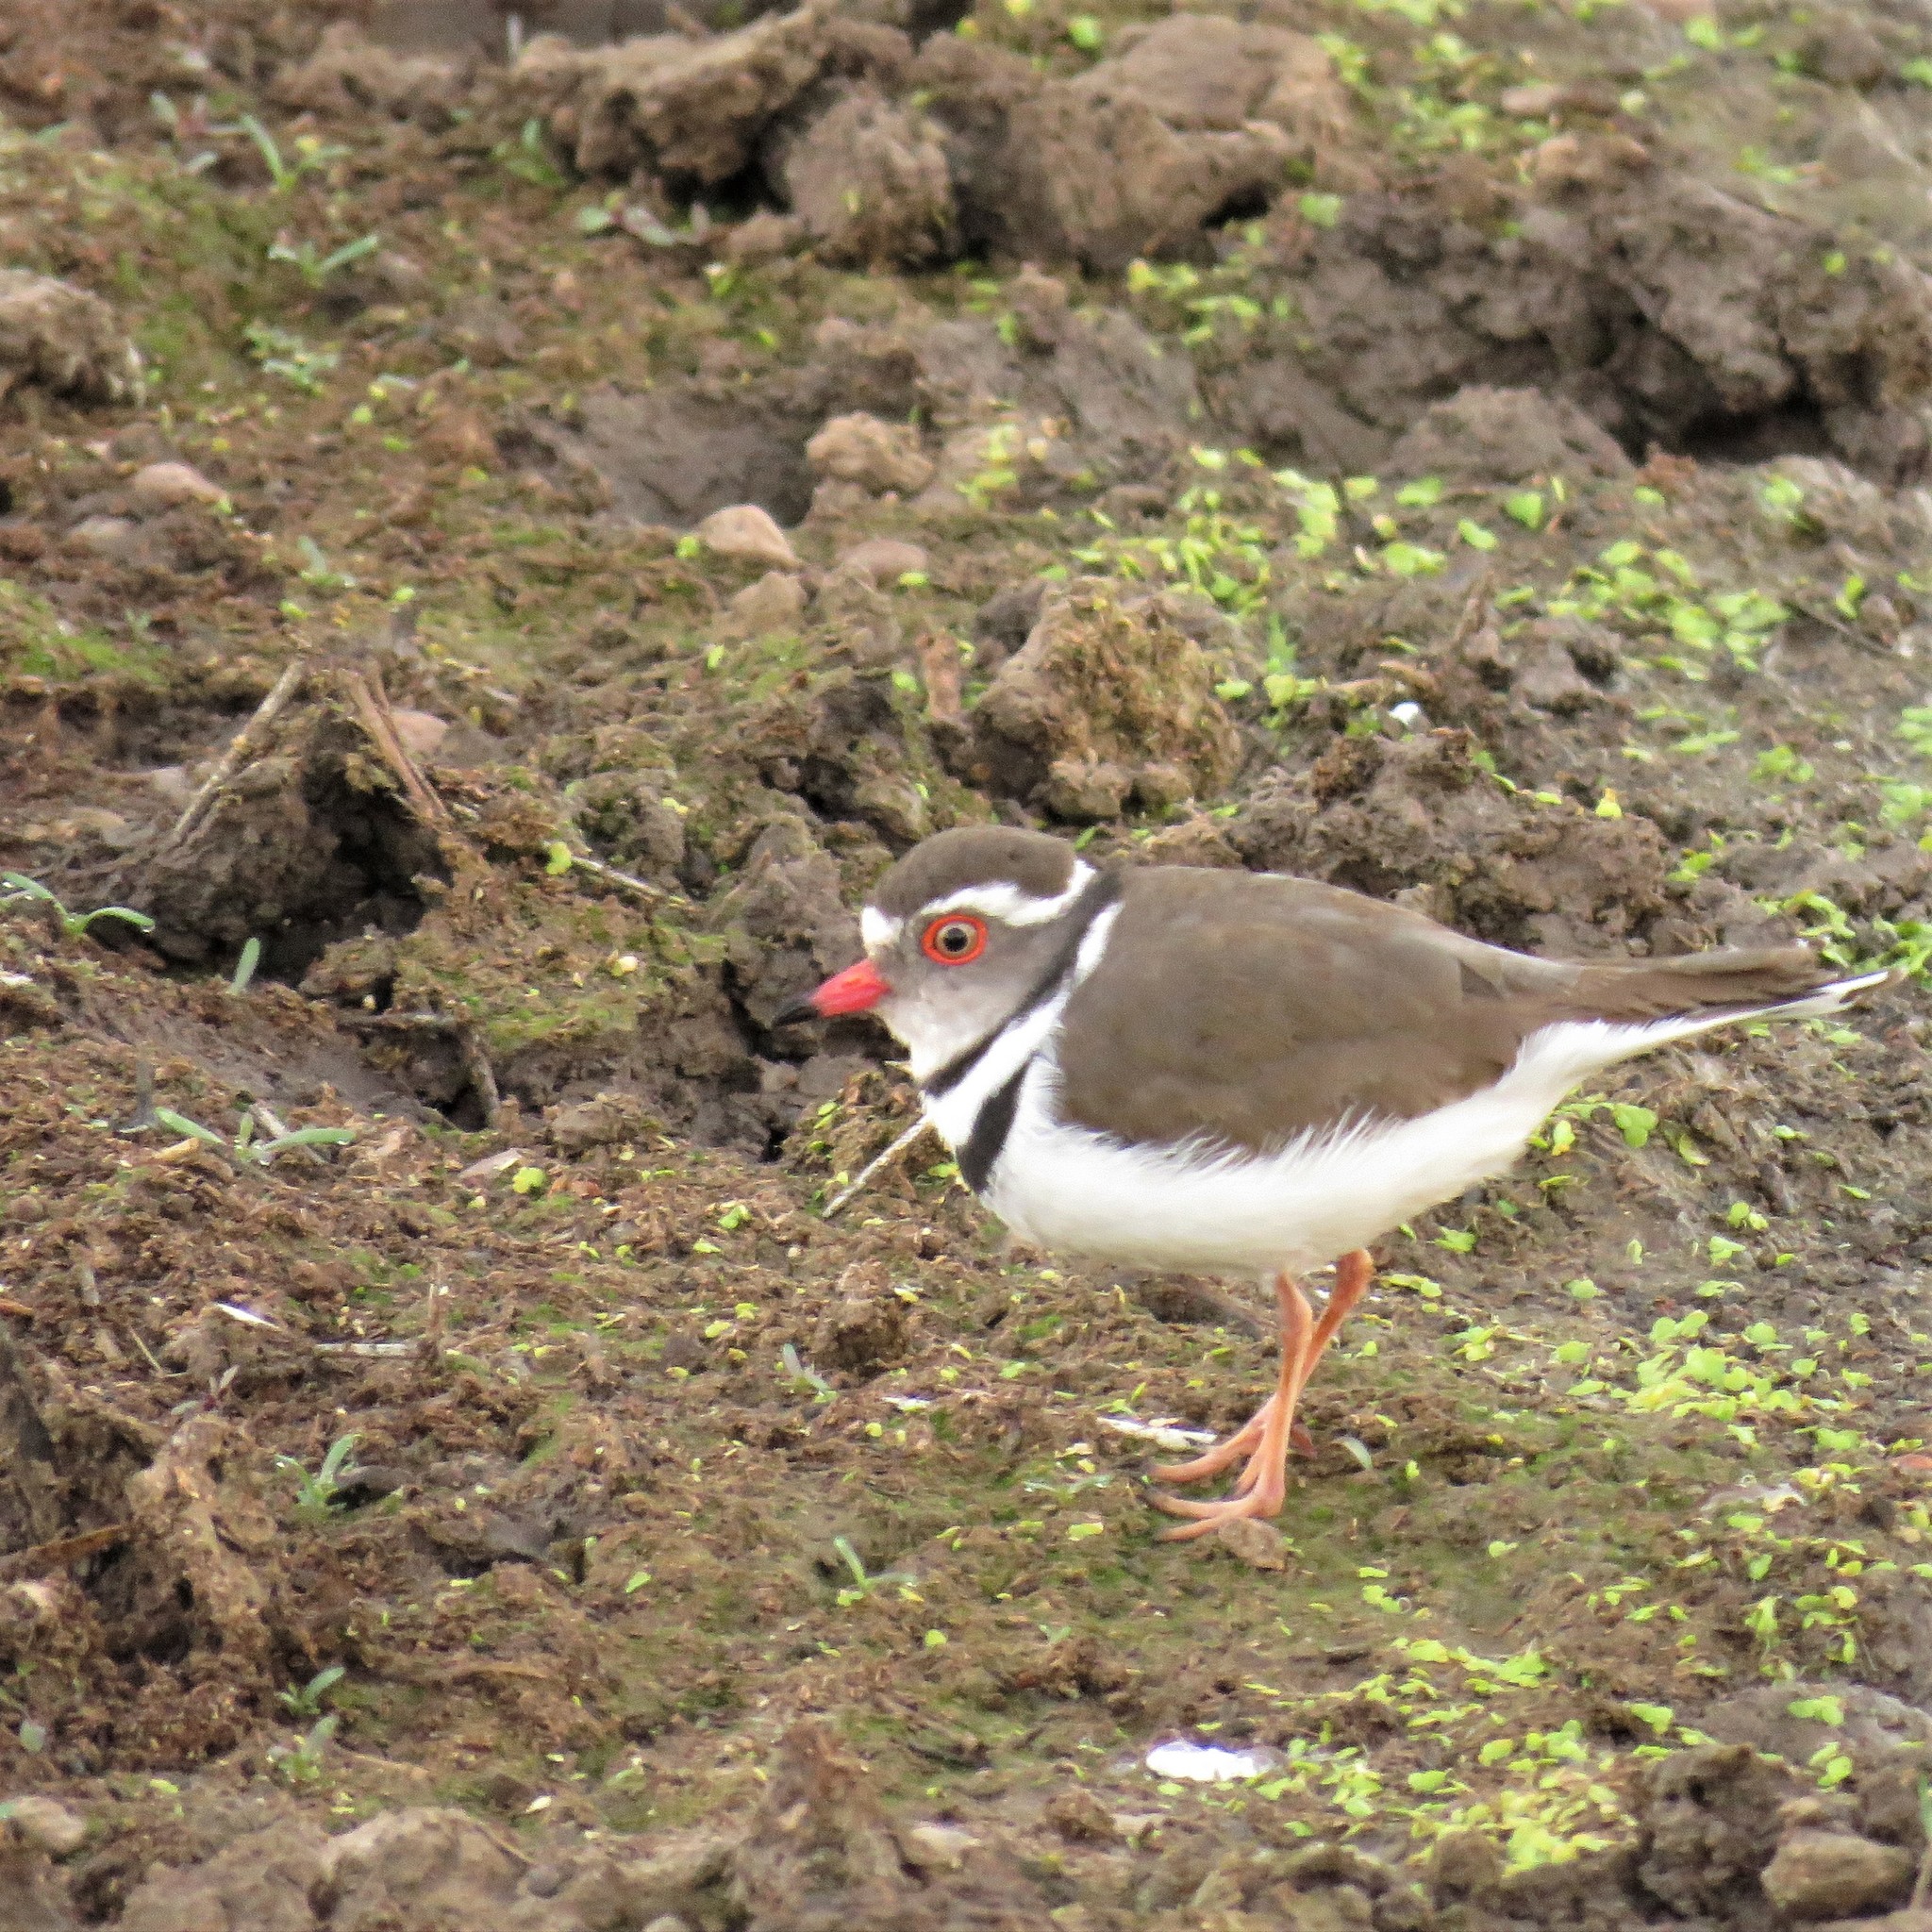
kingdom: Animalia
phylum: Chordata
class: Aves
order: Charadriiformes
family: Charadriidae
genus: Charadrius
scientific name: Charadrius tricollaris
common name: Three-banded plover
